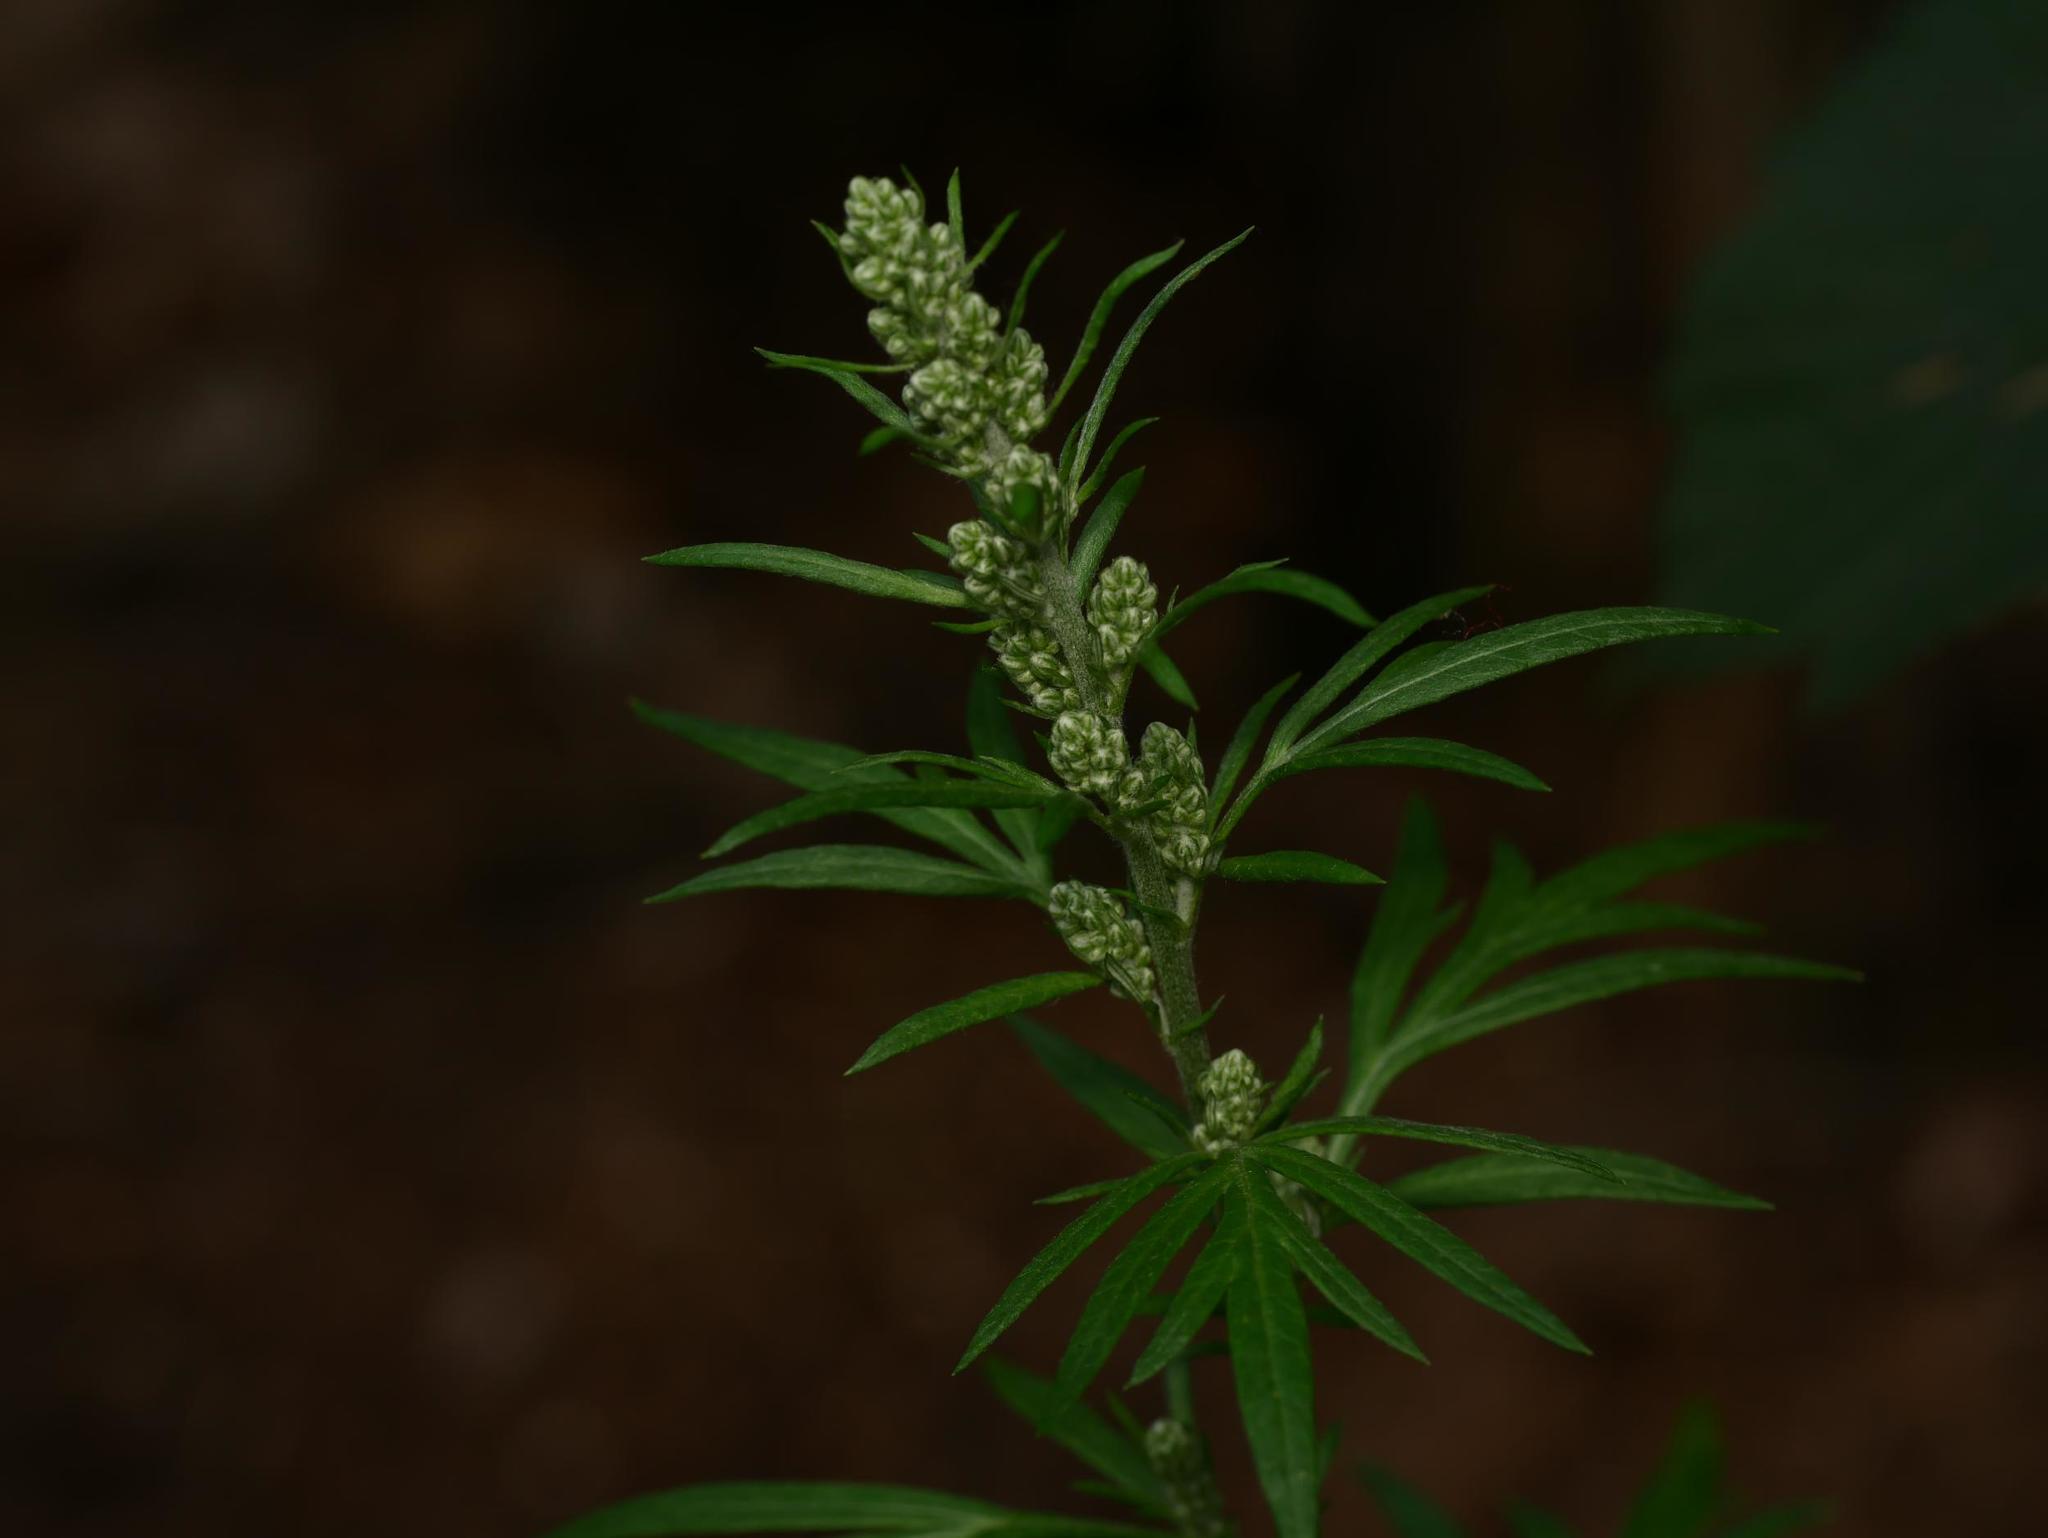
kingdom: Plantae
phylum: Tracheophyta
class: Magnoliopsida
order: Asterales
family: Asteraceae
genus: Artemisia
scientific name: Artemisia vulgaris
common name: Mugwort
